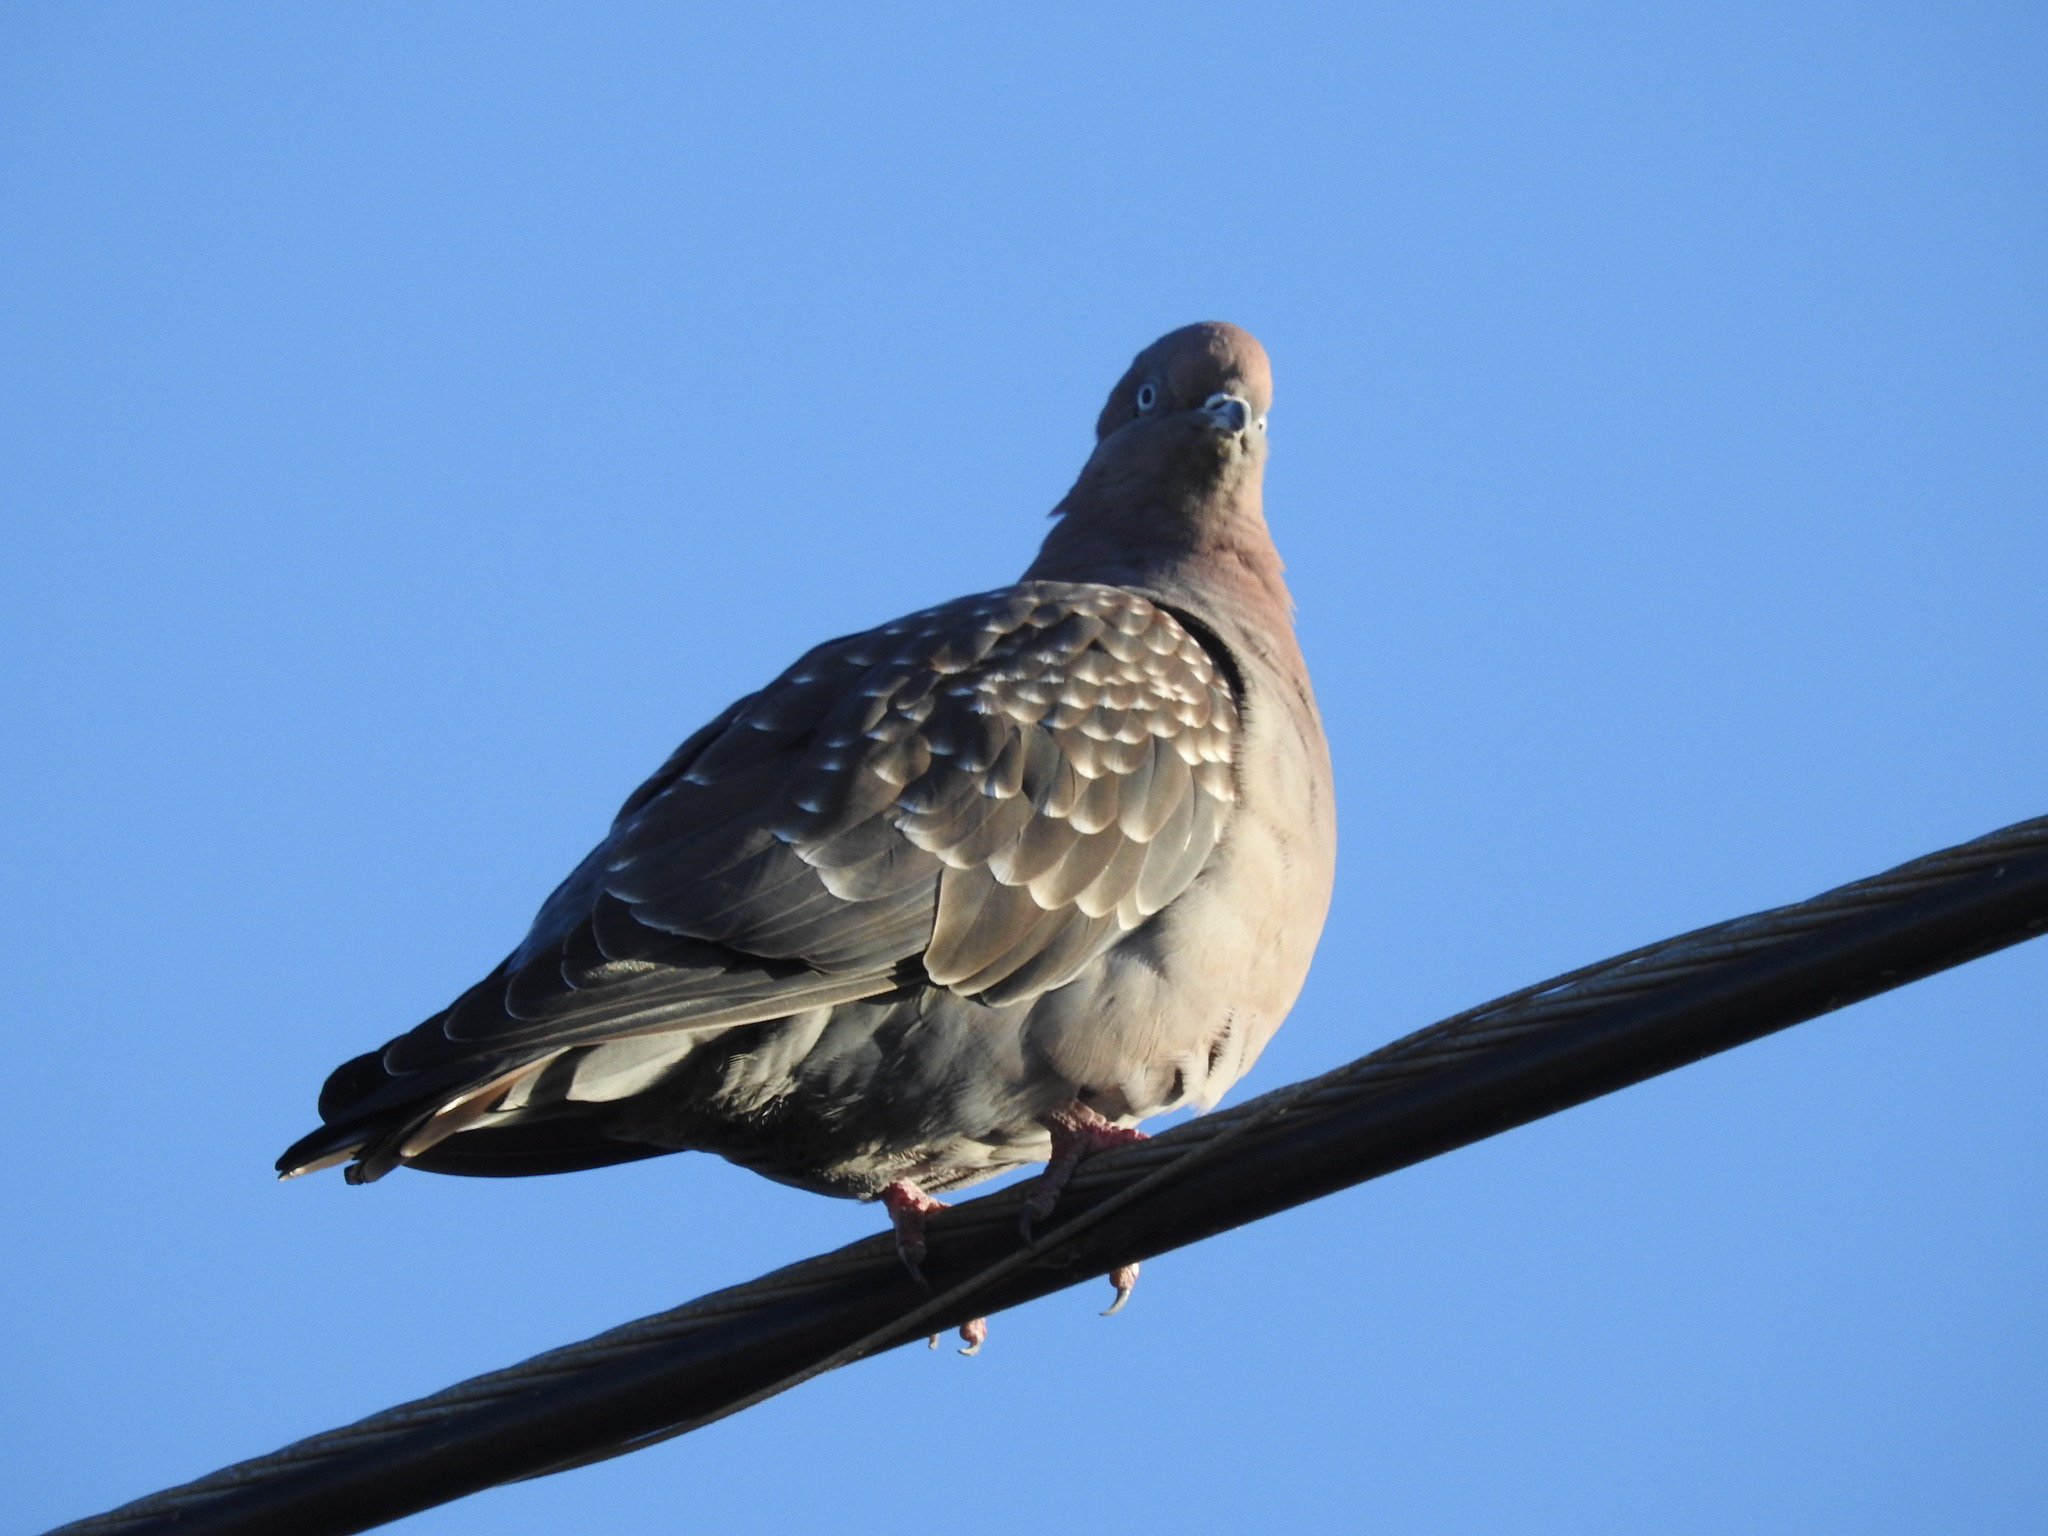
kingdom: Animalia
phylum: Chordata
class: Aves
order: Columbiformes
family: Columbidae
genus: Patagioenas
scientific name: Patagioenas maculosa
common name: Spot-winged pigeon
